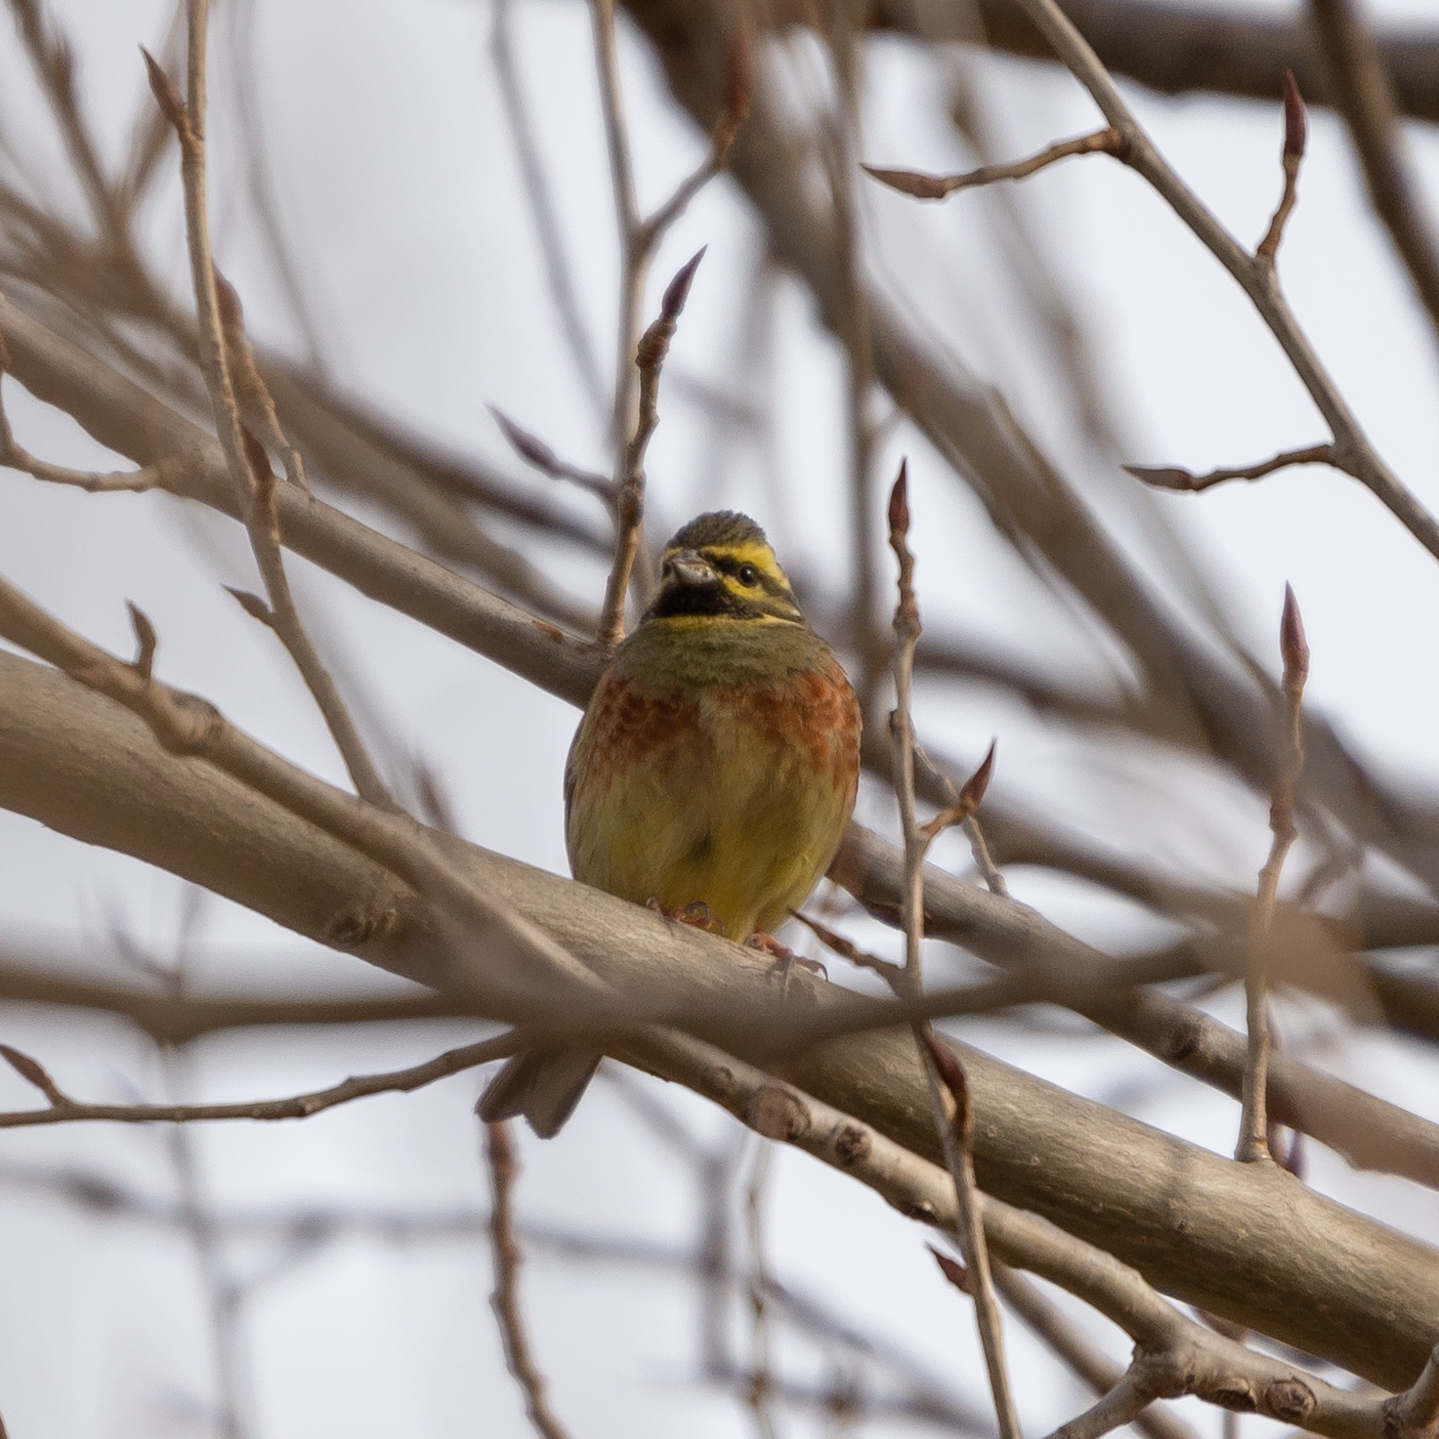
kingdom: Animalia
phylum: Chordata
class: Aves
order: Passeriformes
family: Emberizidae
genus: Emberiza
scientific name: Emberiza cirlus
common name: Cirl bunting
